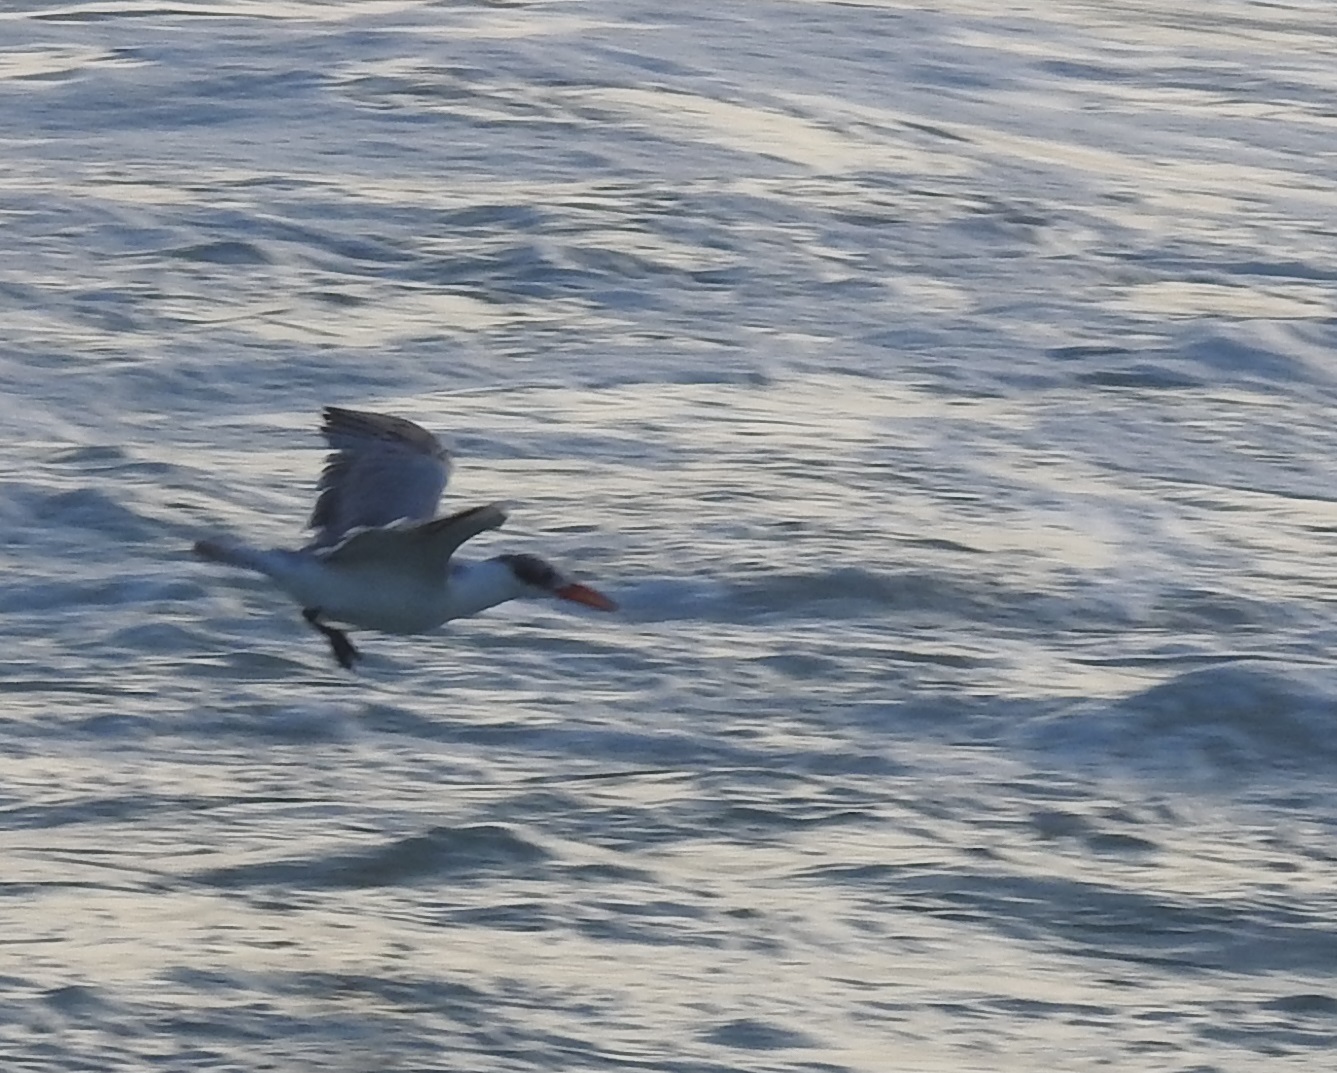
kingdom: Animalia
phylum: Chordata
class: Aves
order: Charadriiformes
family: Laridae
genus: Hydroprogne
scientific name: Hydroprogne caspia
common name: Caspian tern
